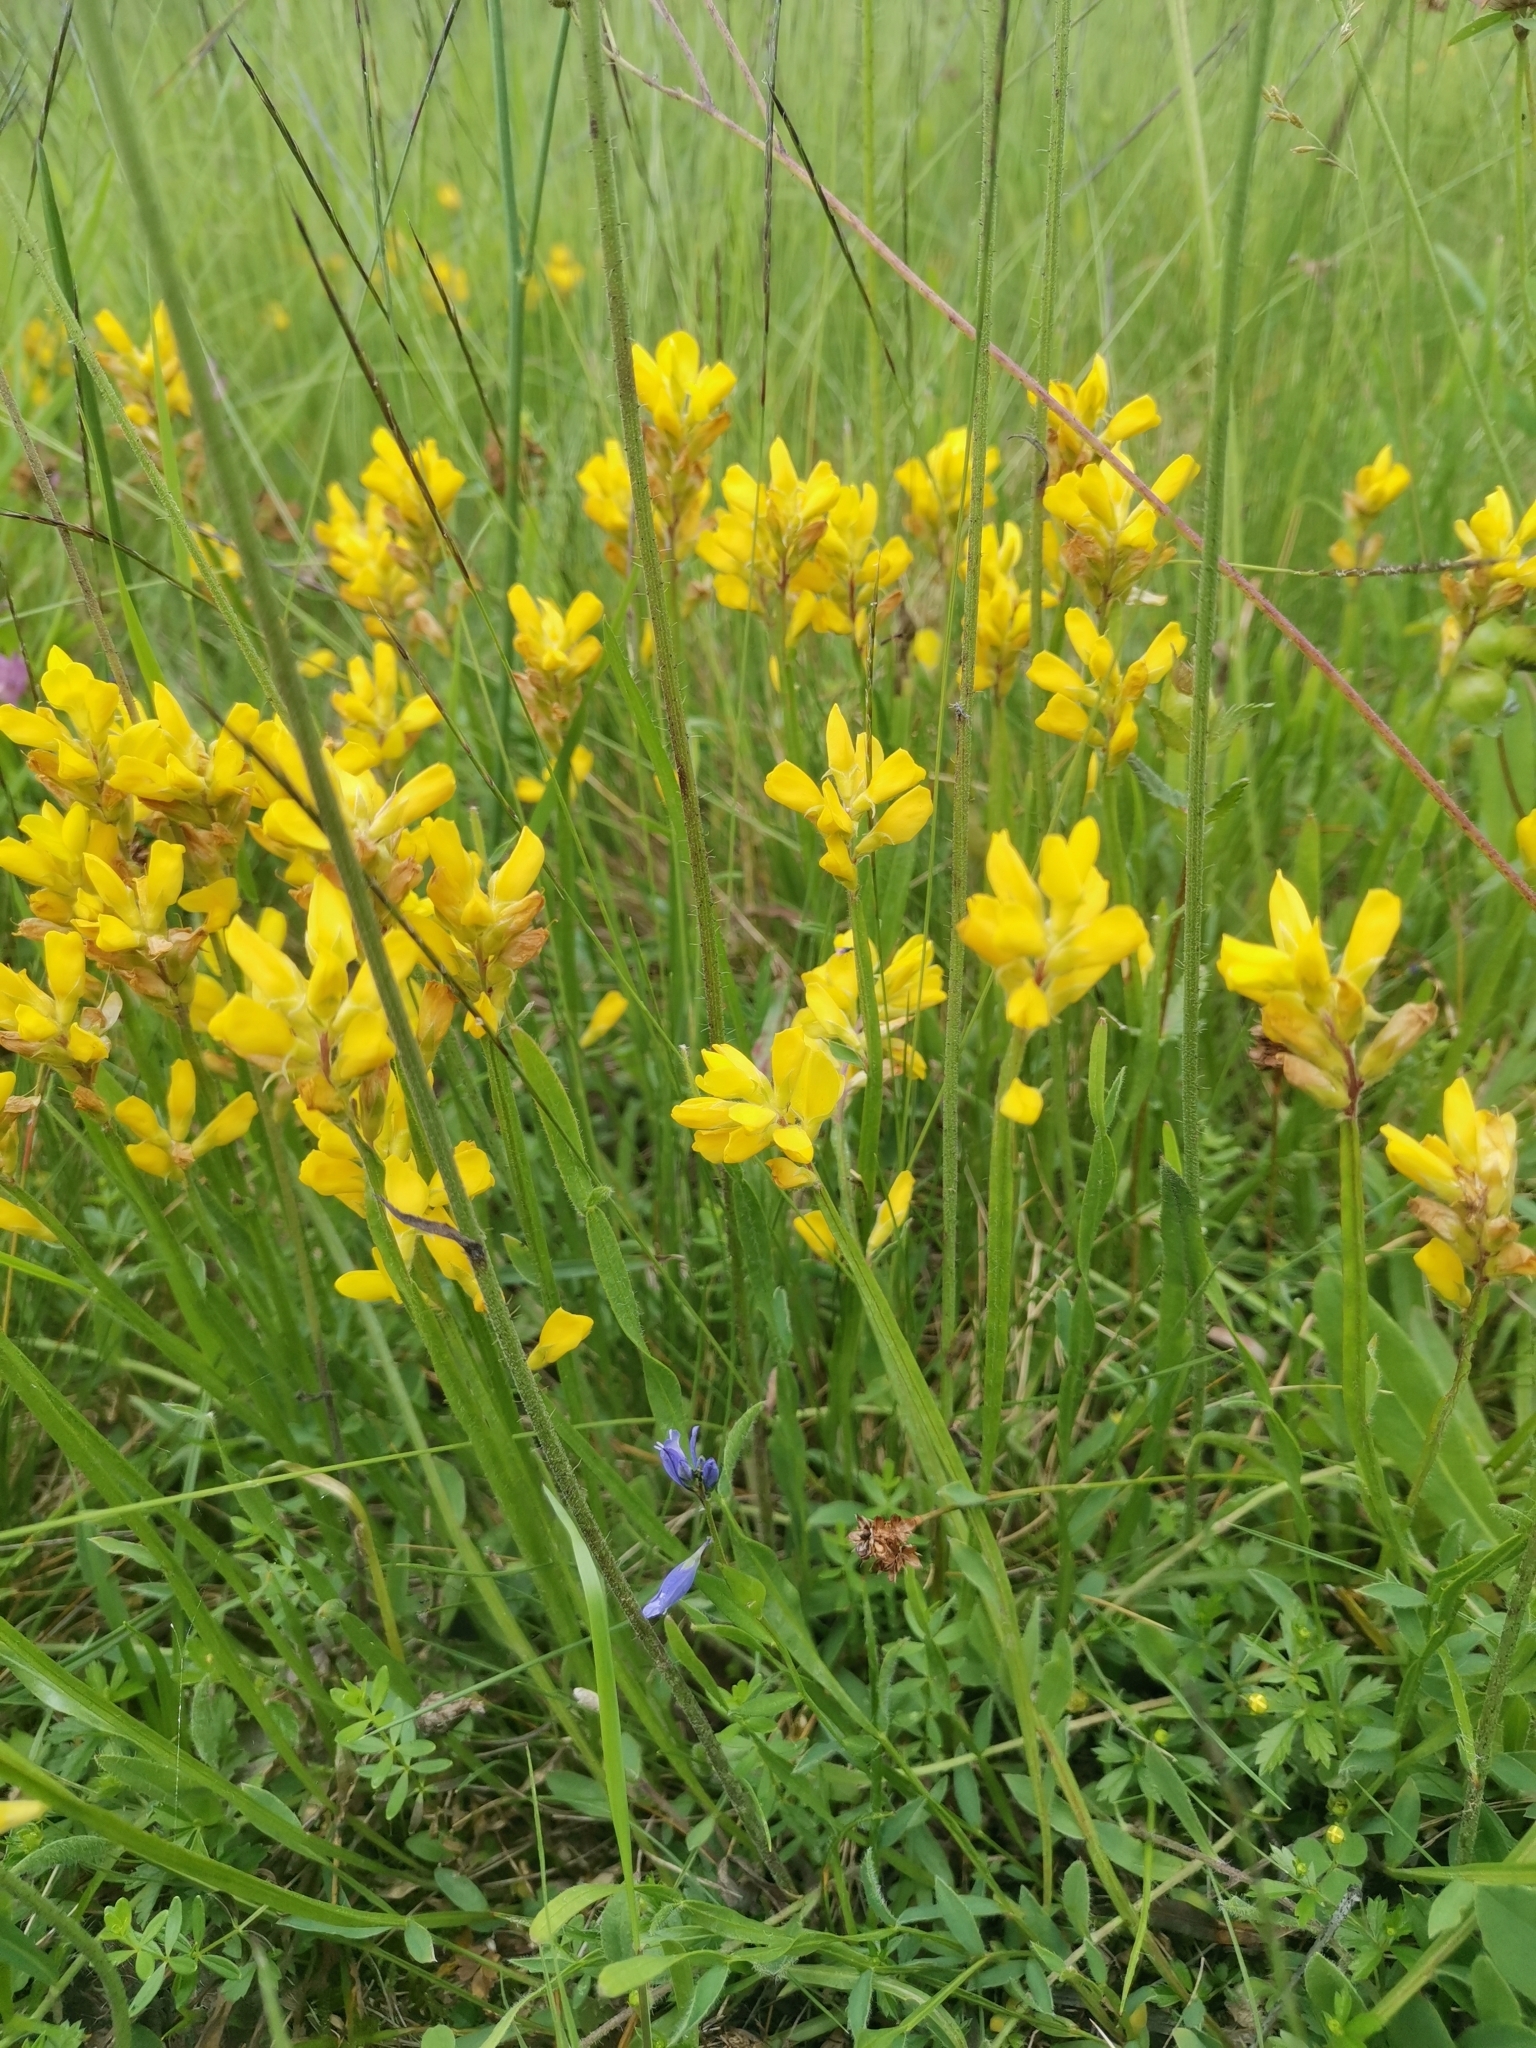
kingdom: Plantae
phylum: Tracheophyta
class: Magnoliopsida
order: Fabales
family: Fabaceae
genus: Genista
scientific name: Genista sagittalis
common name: Winged greenweed
